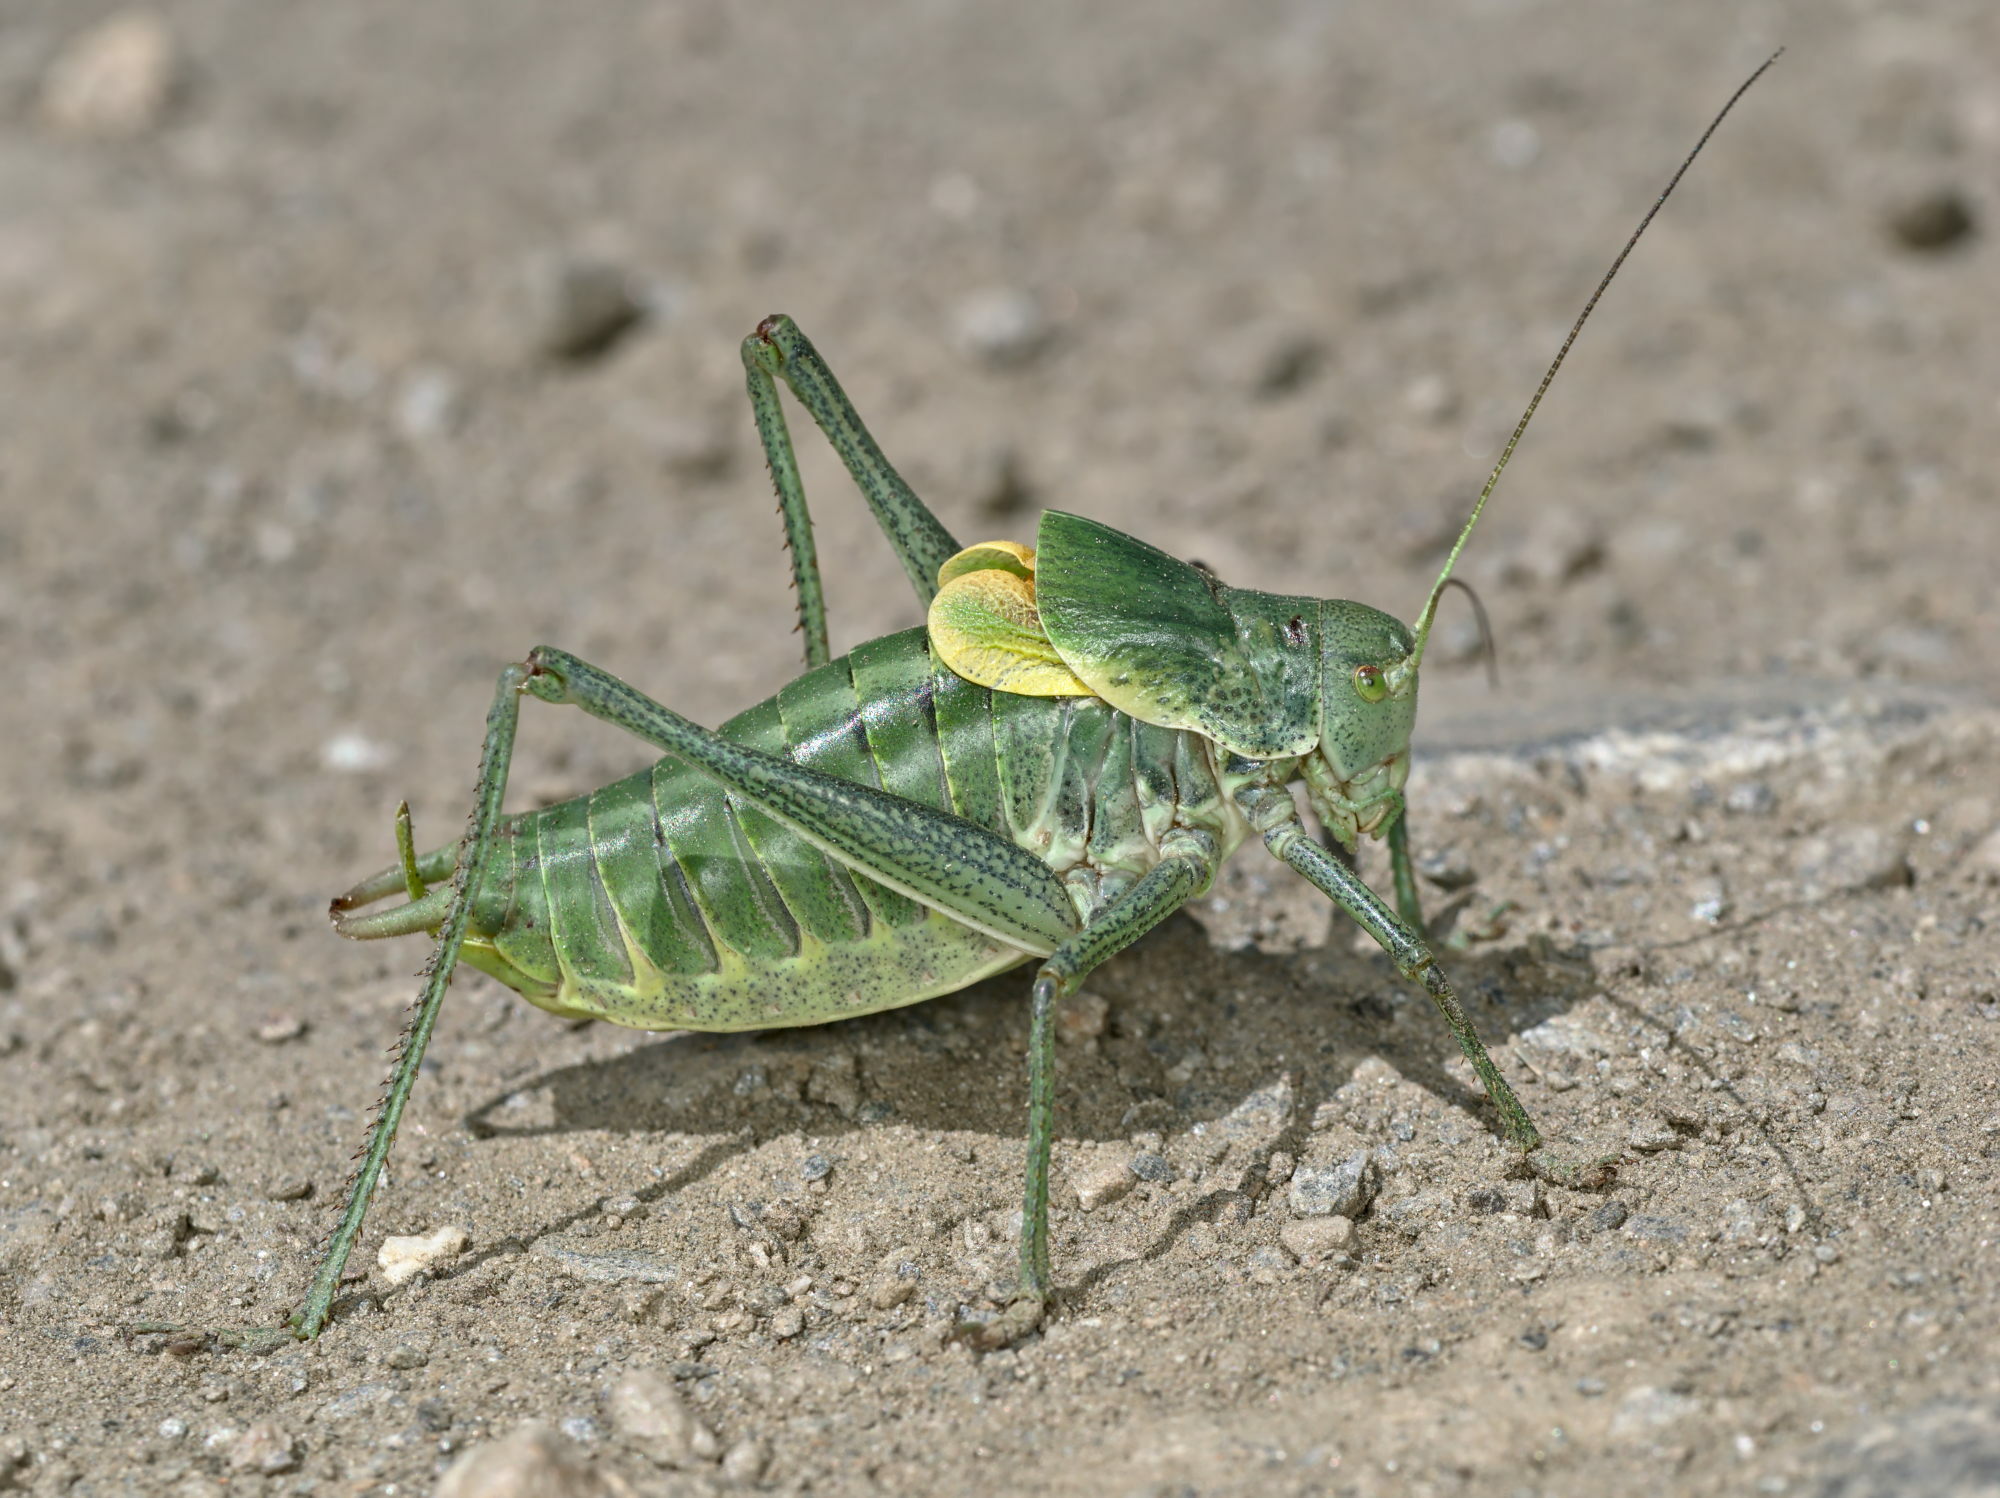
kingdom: Animalia
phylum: Arthropoda
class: Insecta
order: Orthoptera
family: Tettigoniidae
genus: Polysarcus
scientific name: Polysarcus denticauda
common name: Large saw-tailed bush-cricket
